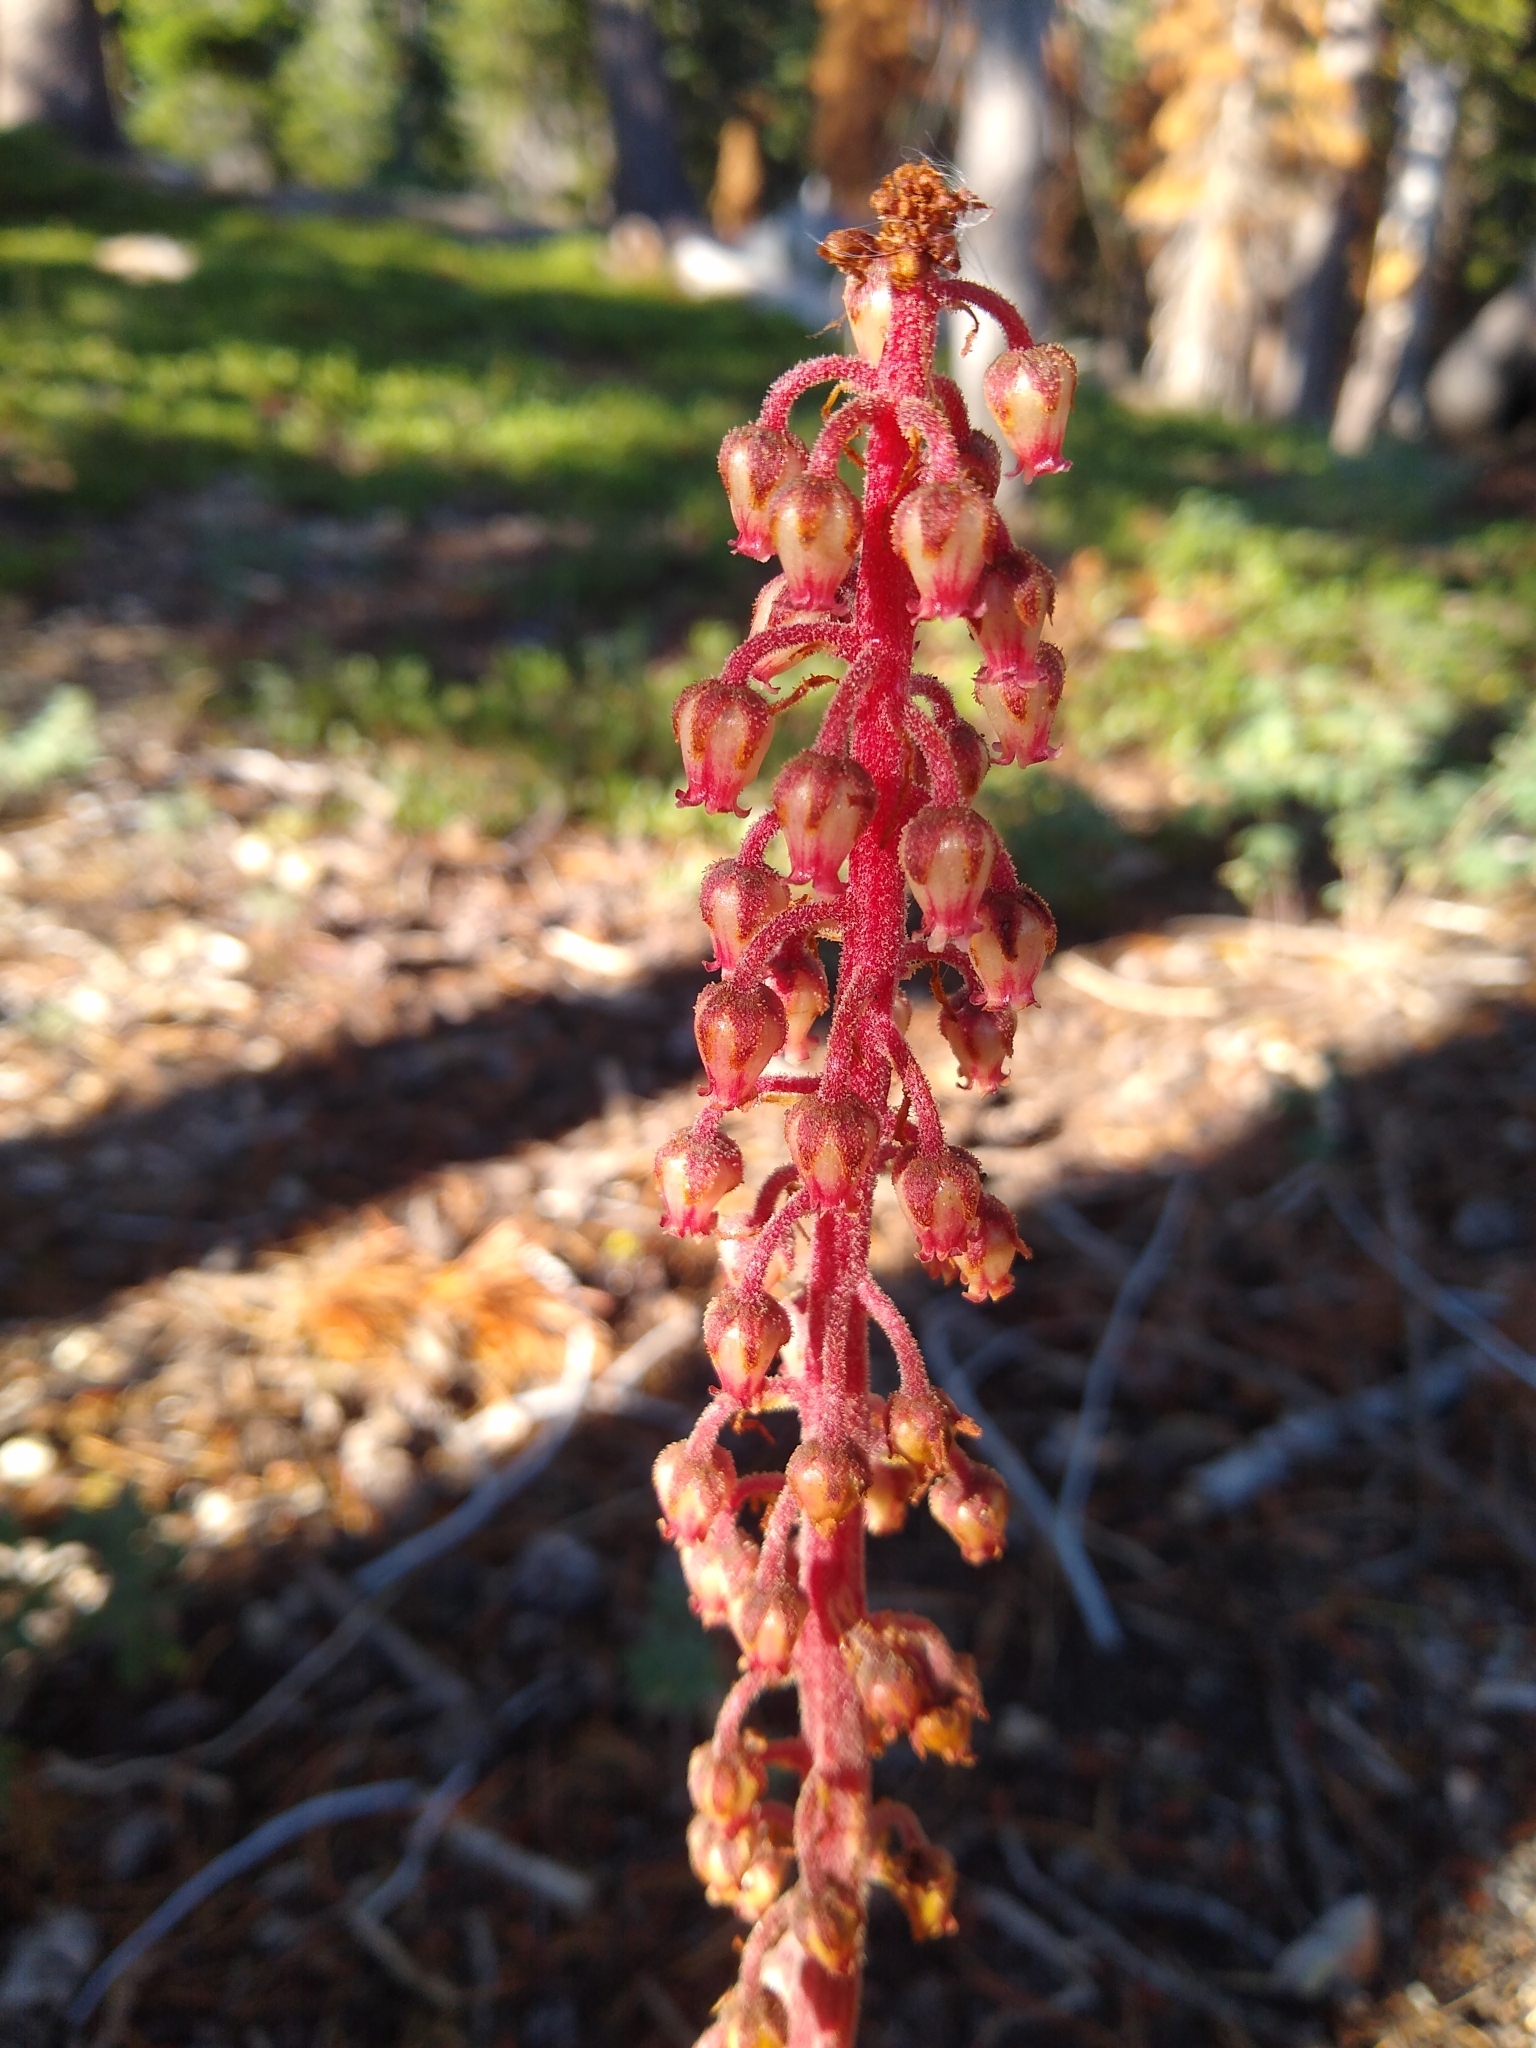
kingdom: Plantae
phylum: Tracheophyta
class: Magnoliopsida
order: Ericales
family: Ericaceae
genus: Pterospora
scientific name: Pterospora andromedea
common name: Giant bird's-nest
